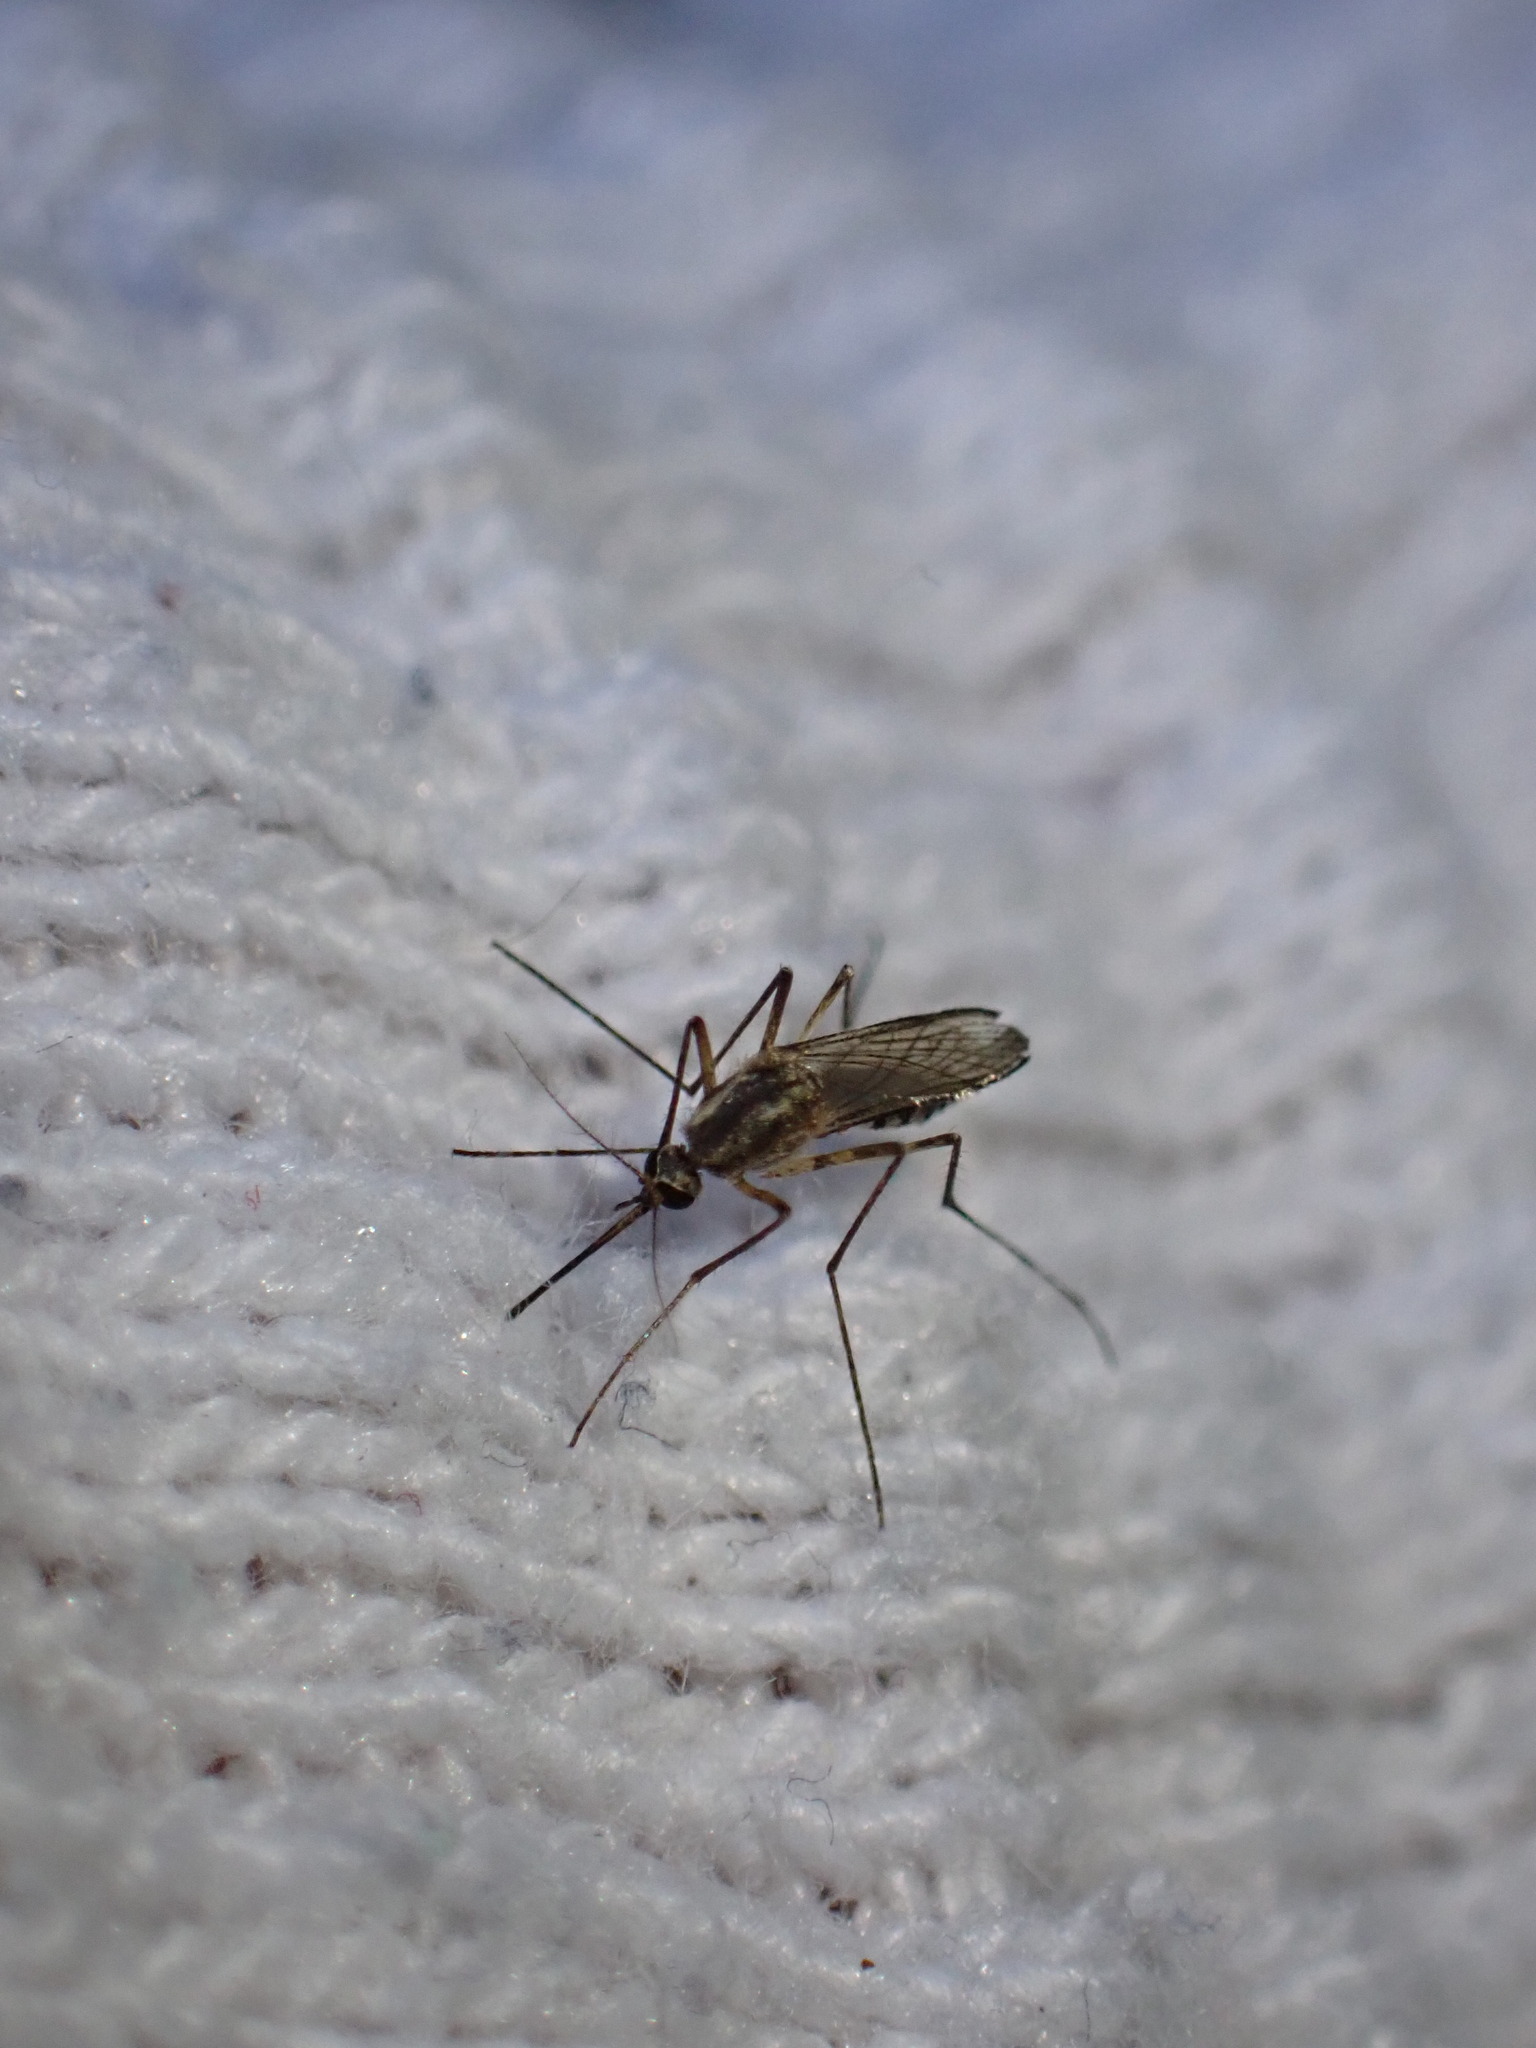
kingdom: Animalia
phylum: Arthropoda
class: Insecta
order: Diptera
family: Culicidae
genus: Aedes
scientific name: Aedes trivittatus
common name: Plains floodwater mosquito
